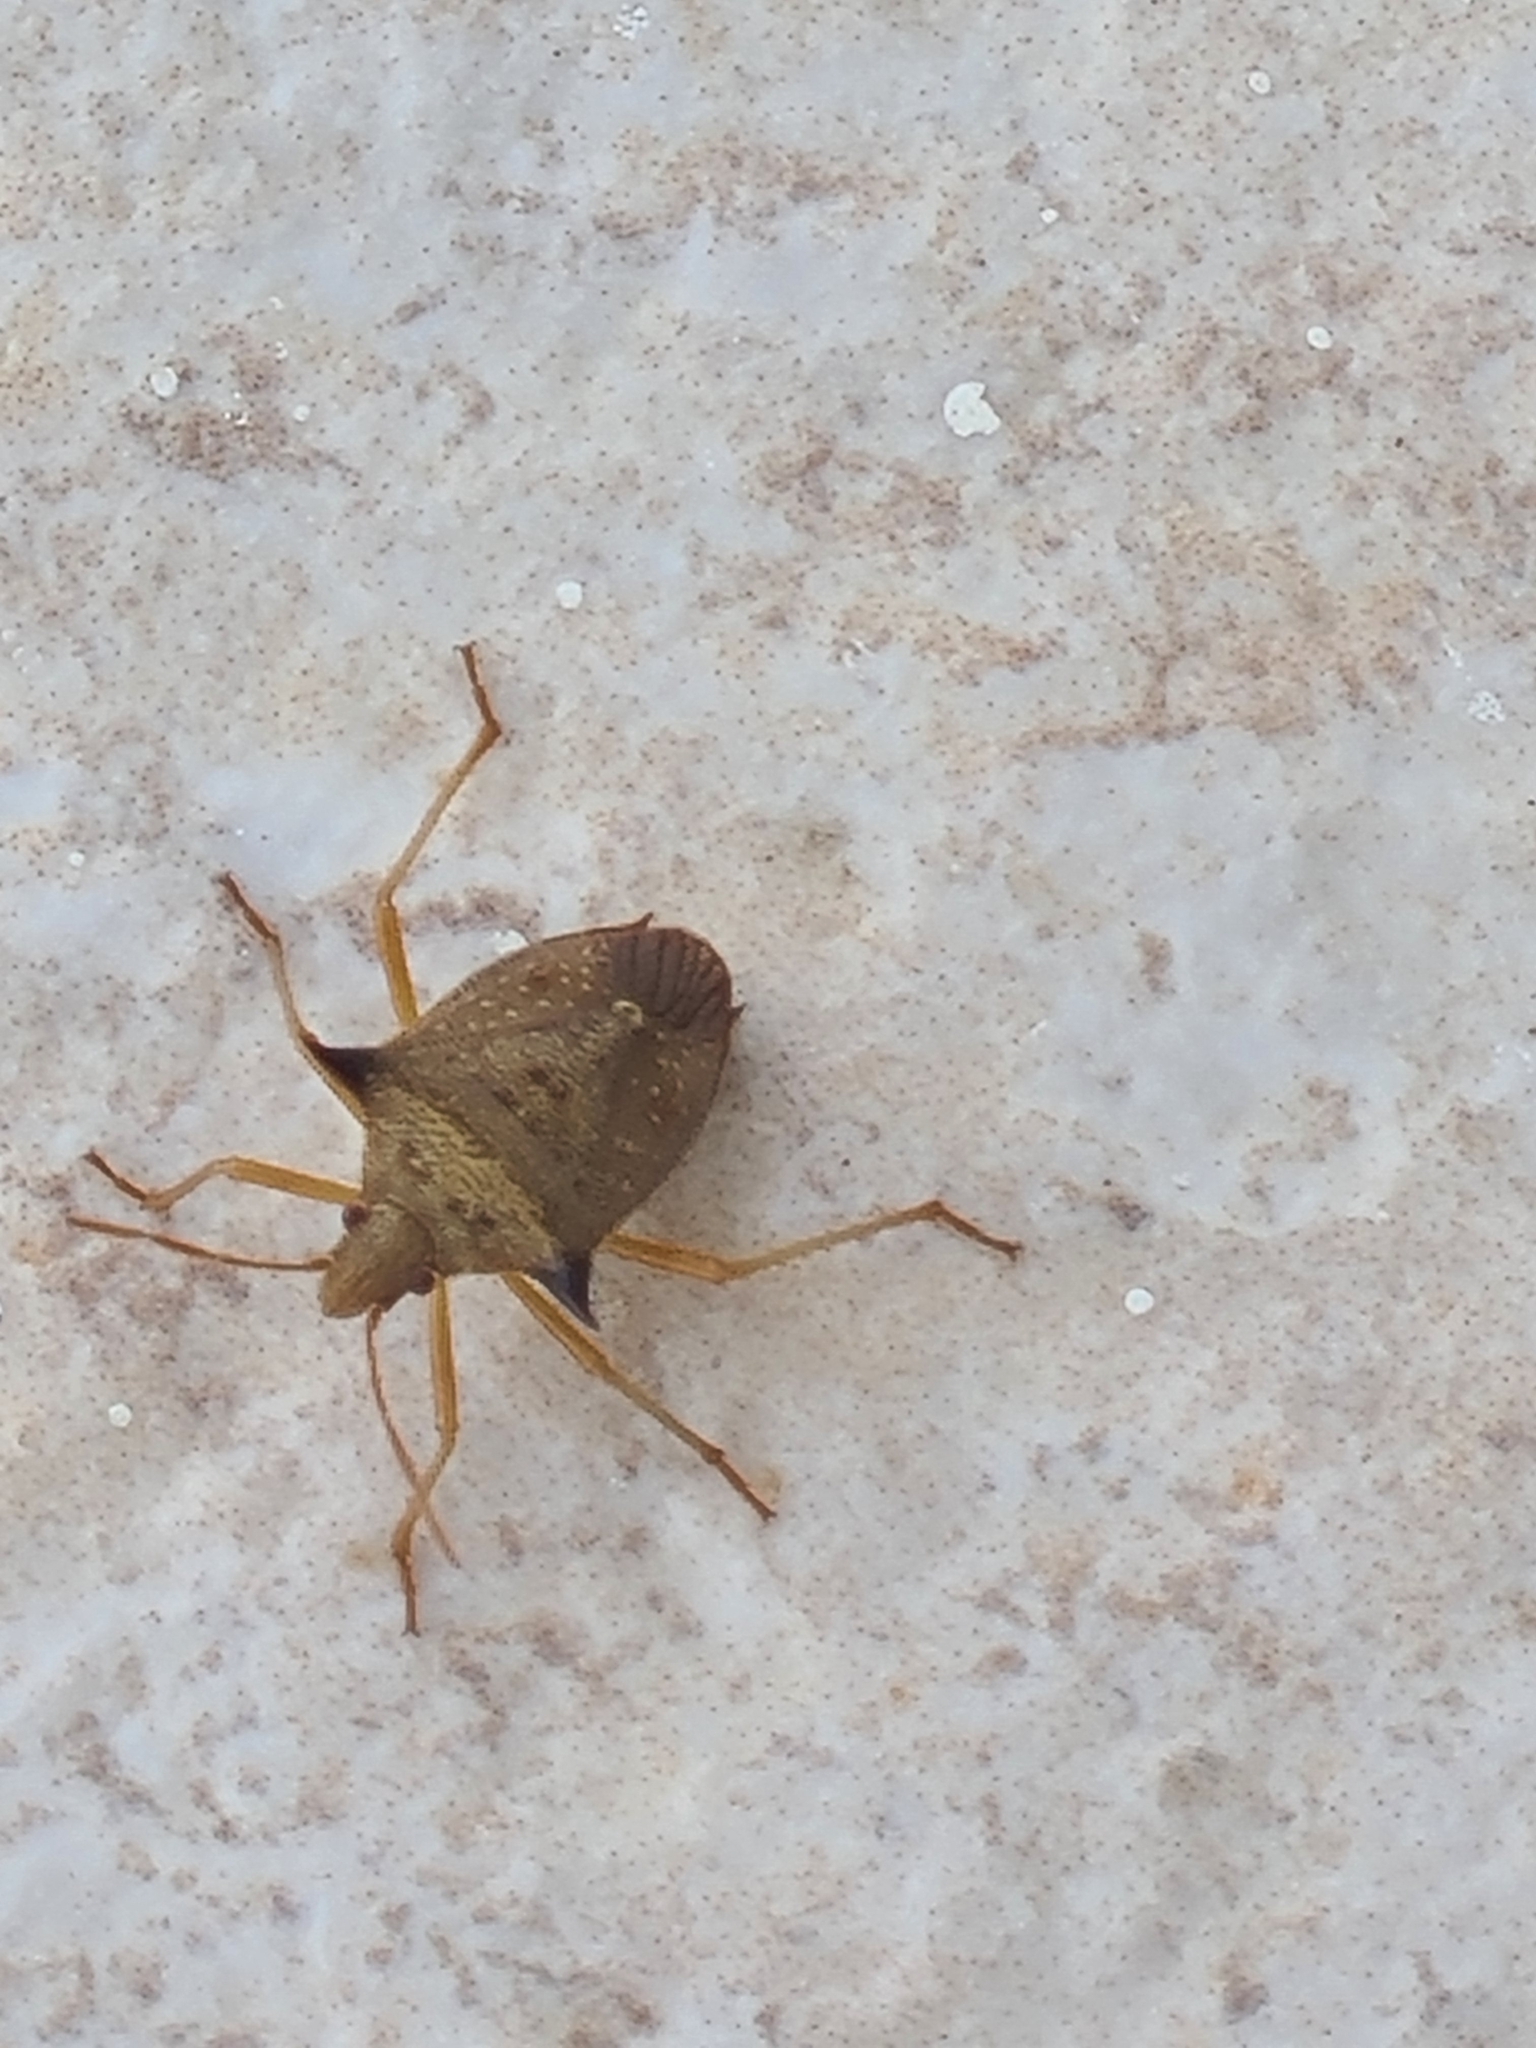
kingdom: Animalia
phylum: Arthropoda
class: Insecta
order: Hemiptera
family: Pentatomidae
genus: Euschistus
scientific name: Euschistus atrox
